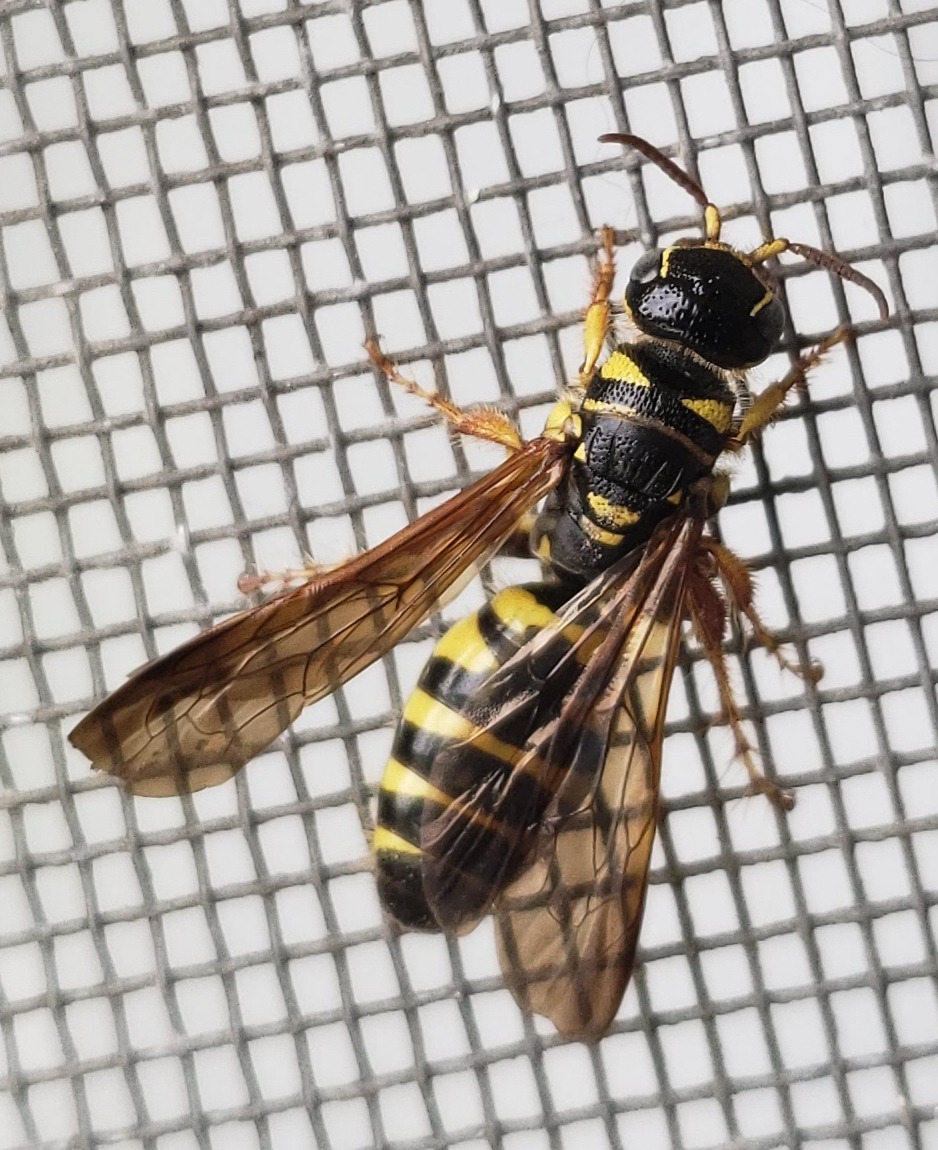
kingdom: Animalia
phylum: Arthropoda
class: Insecta
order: Hymenoptera
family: Tiphiidae
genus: Myzinum
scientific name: Myzinum quinquecinctum
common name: Five-banded thynnid wasp
